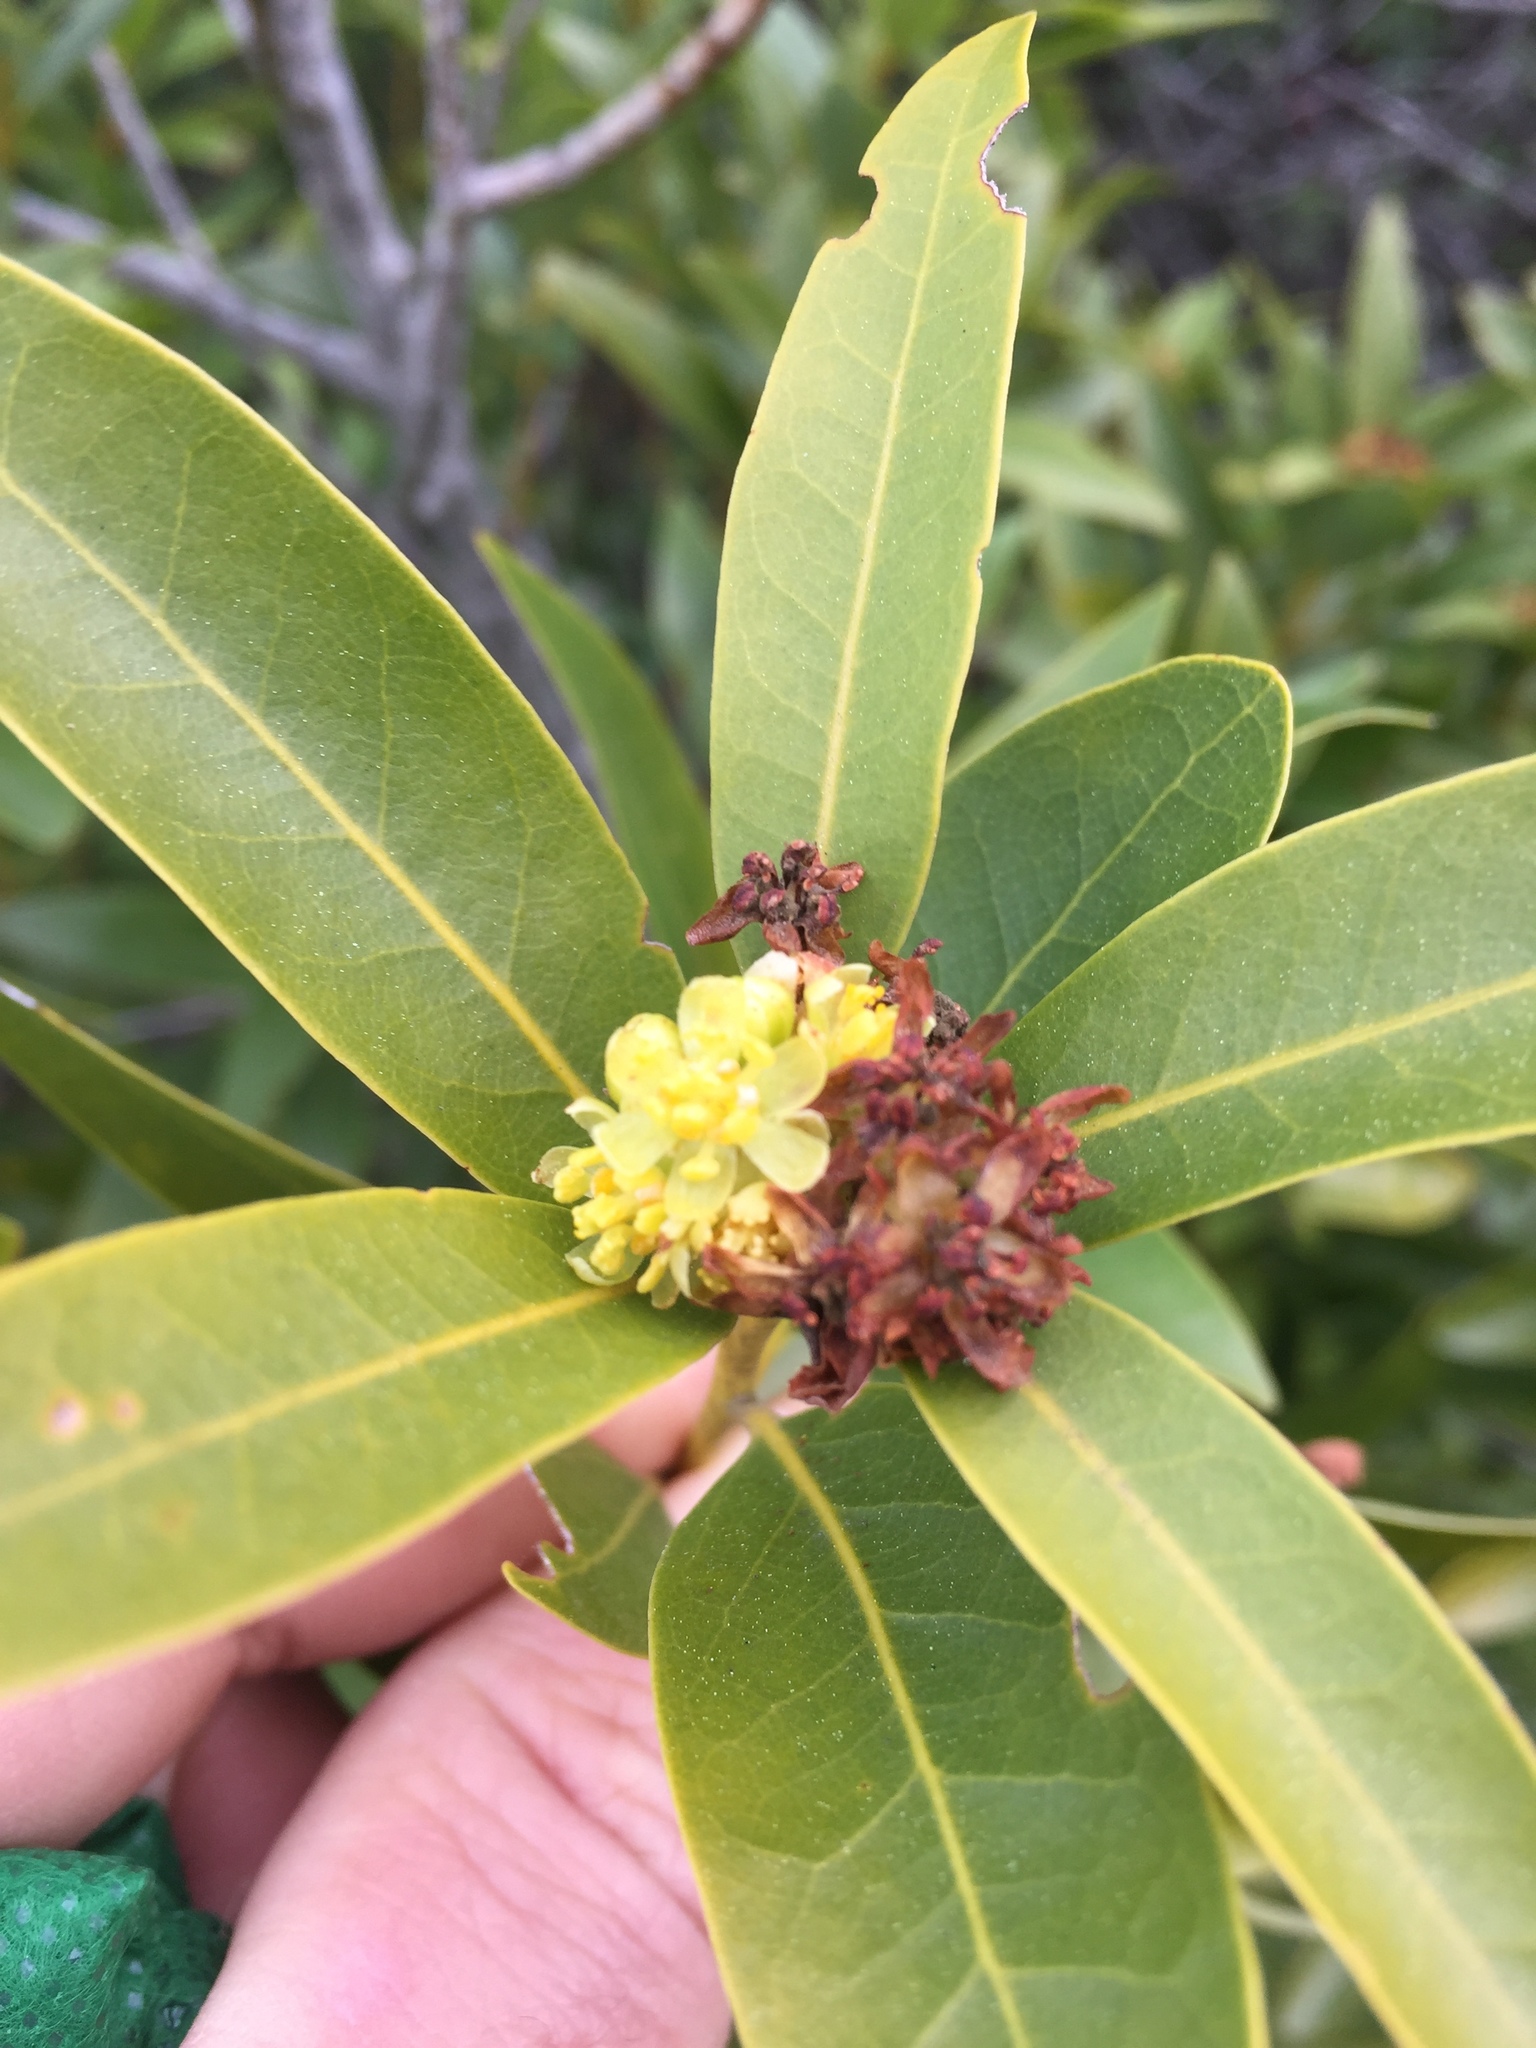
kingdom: Plantae
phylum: Tracheophyta
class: Magnoliopsida
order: Laurales
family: Lauraceae
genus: Umbellularia
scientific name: Umbellularia californica
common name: California bay
